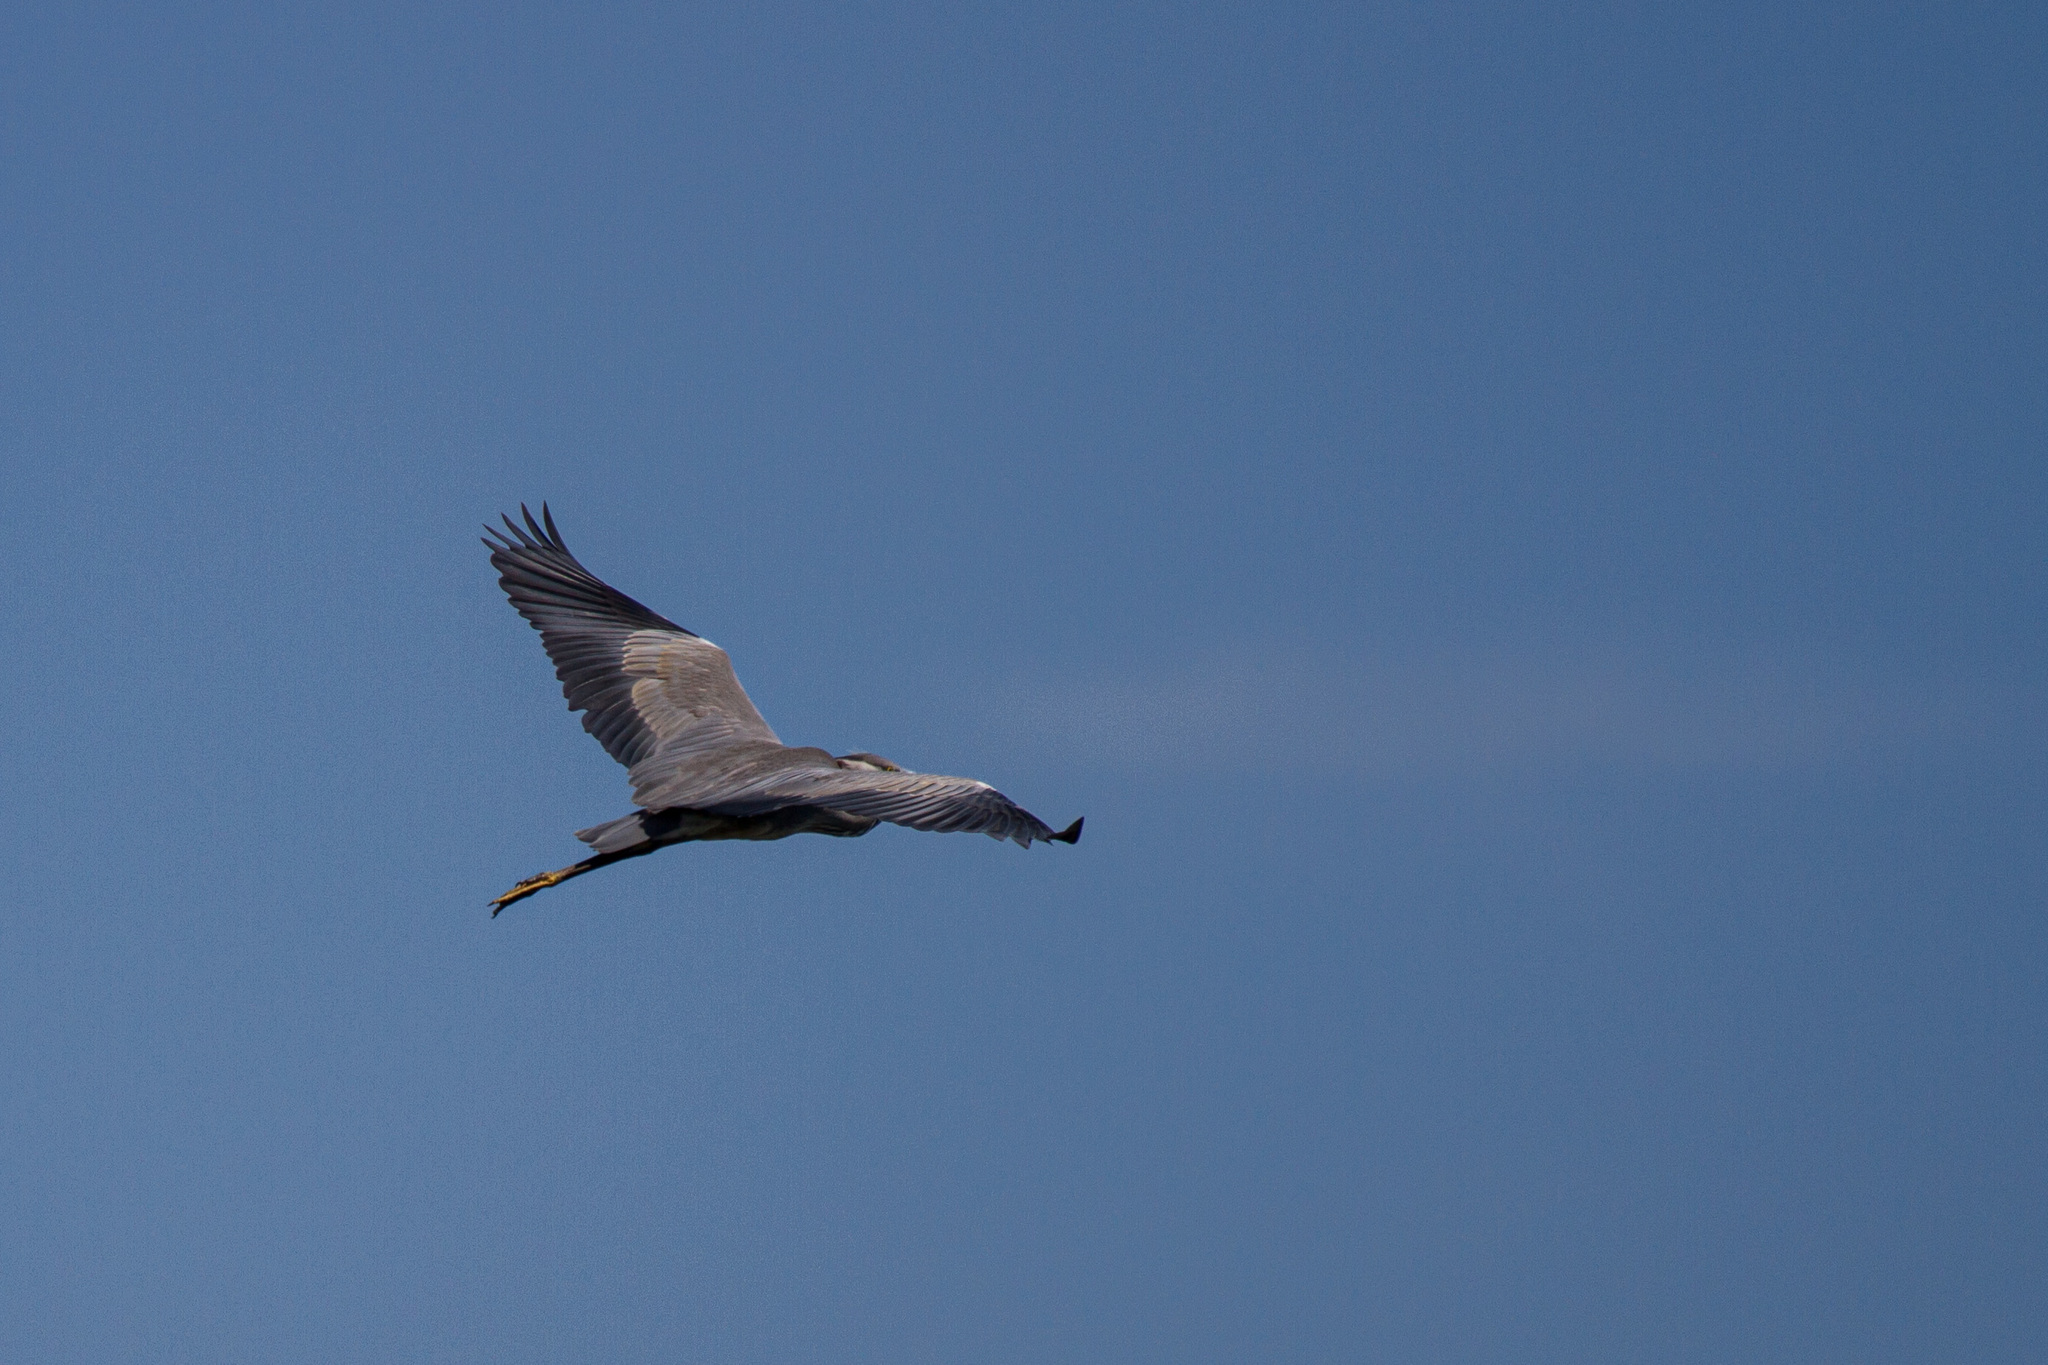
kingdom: Animalia
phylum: Chordata
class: Aves
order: Pelecaniformes
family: Ardeidae
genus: Ardea
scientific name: Ardea cinerea
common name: Grey heron
